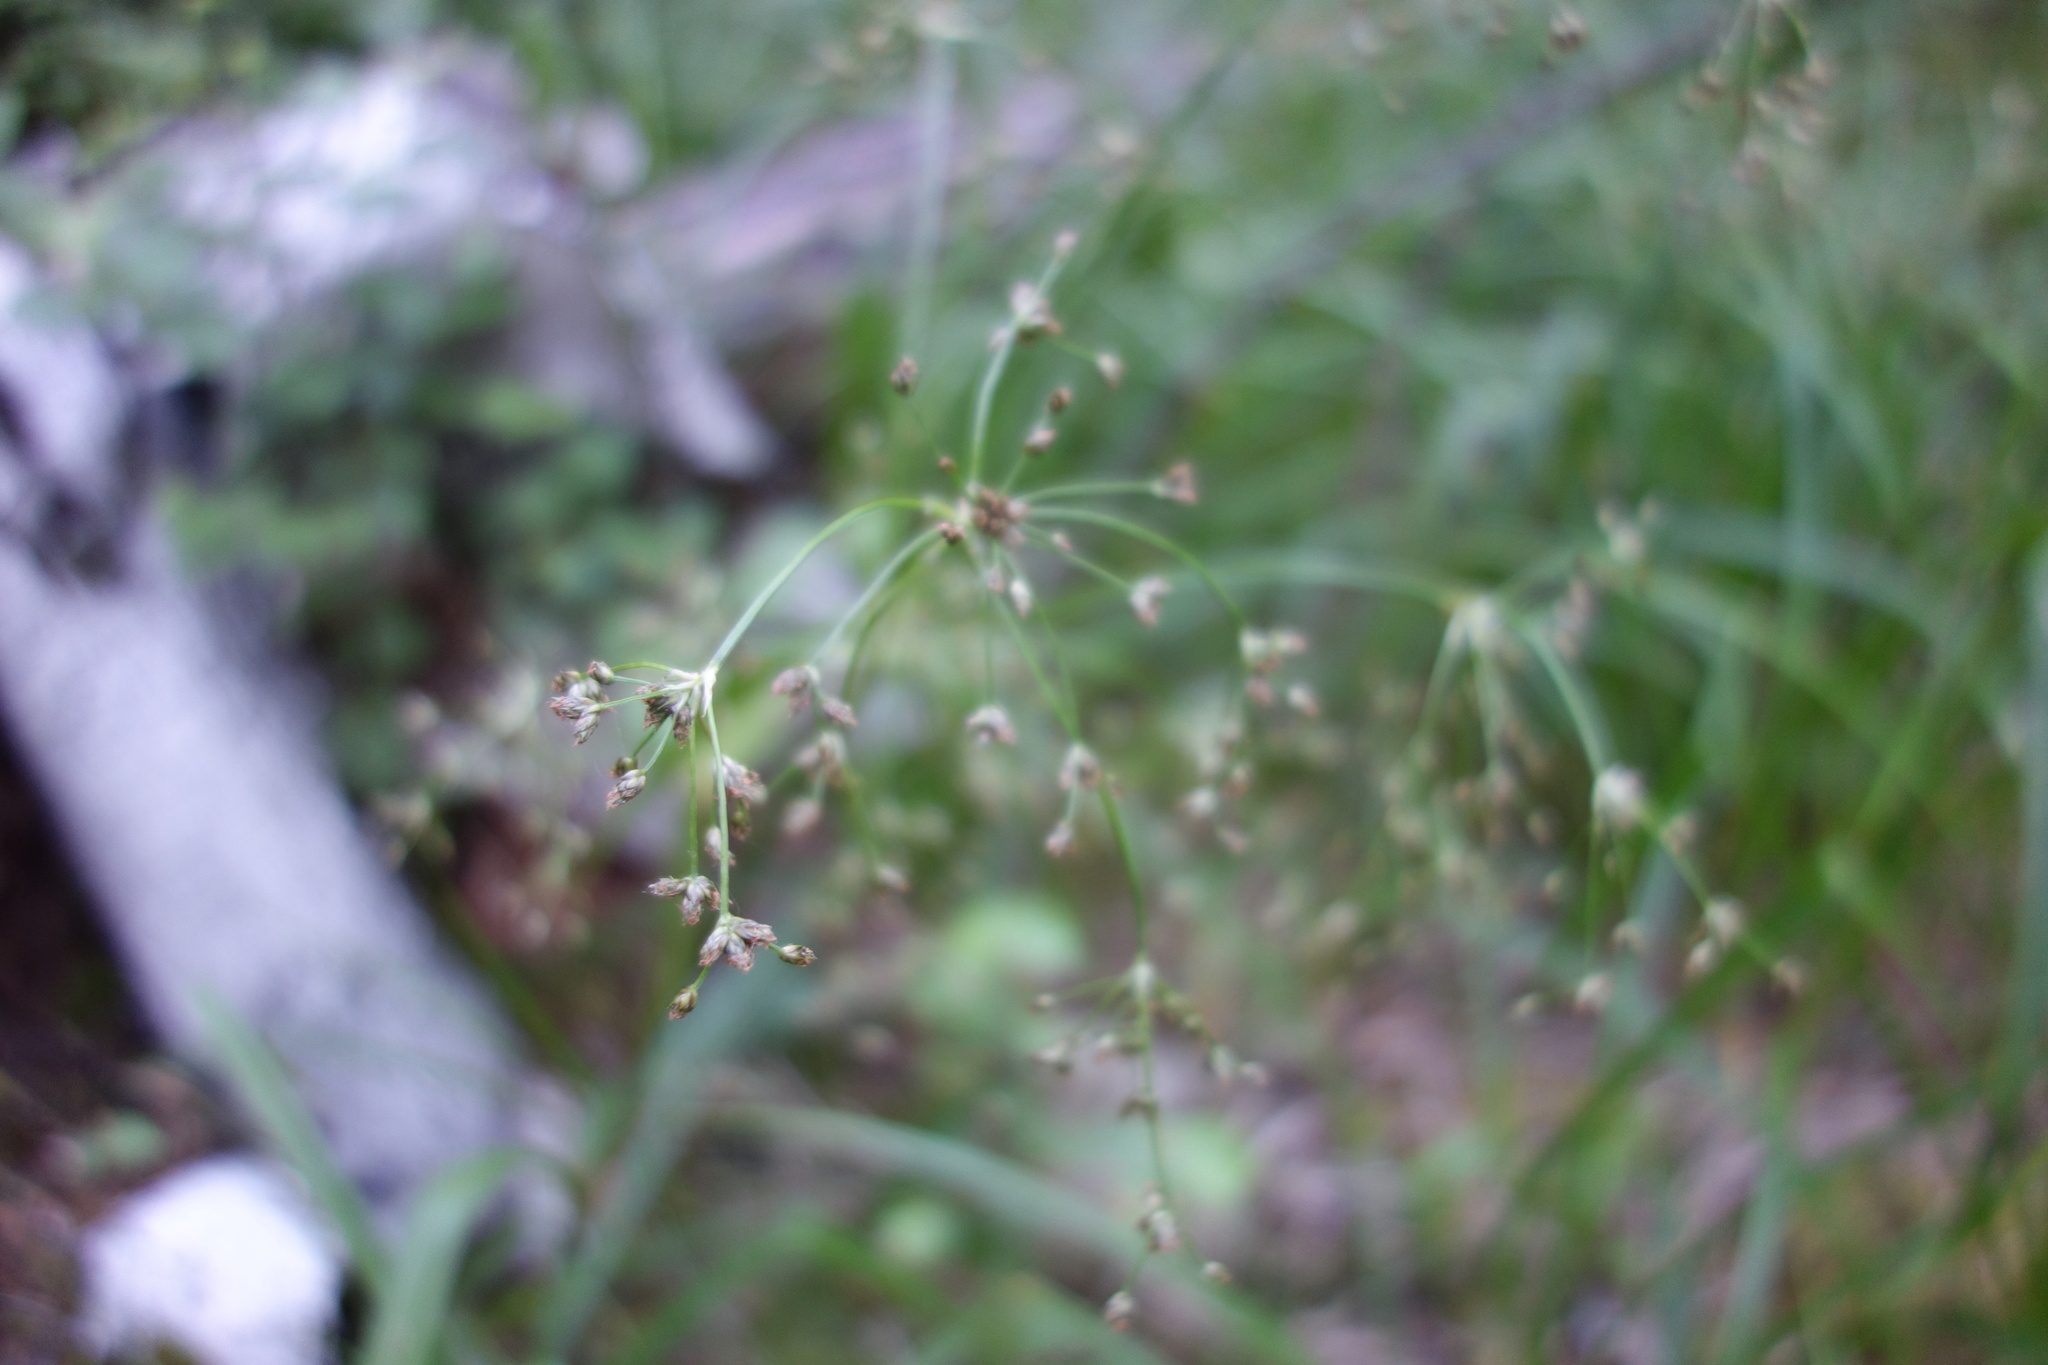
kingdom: Plantae
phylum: Tracheophyta
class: Liliopsida
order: Poales
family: Cyperaceae
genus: Scirpus
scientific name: Scirpus sylvaticus
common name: Wood club-rush
